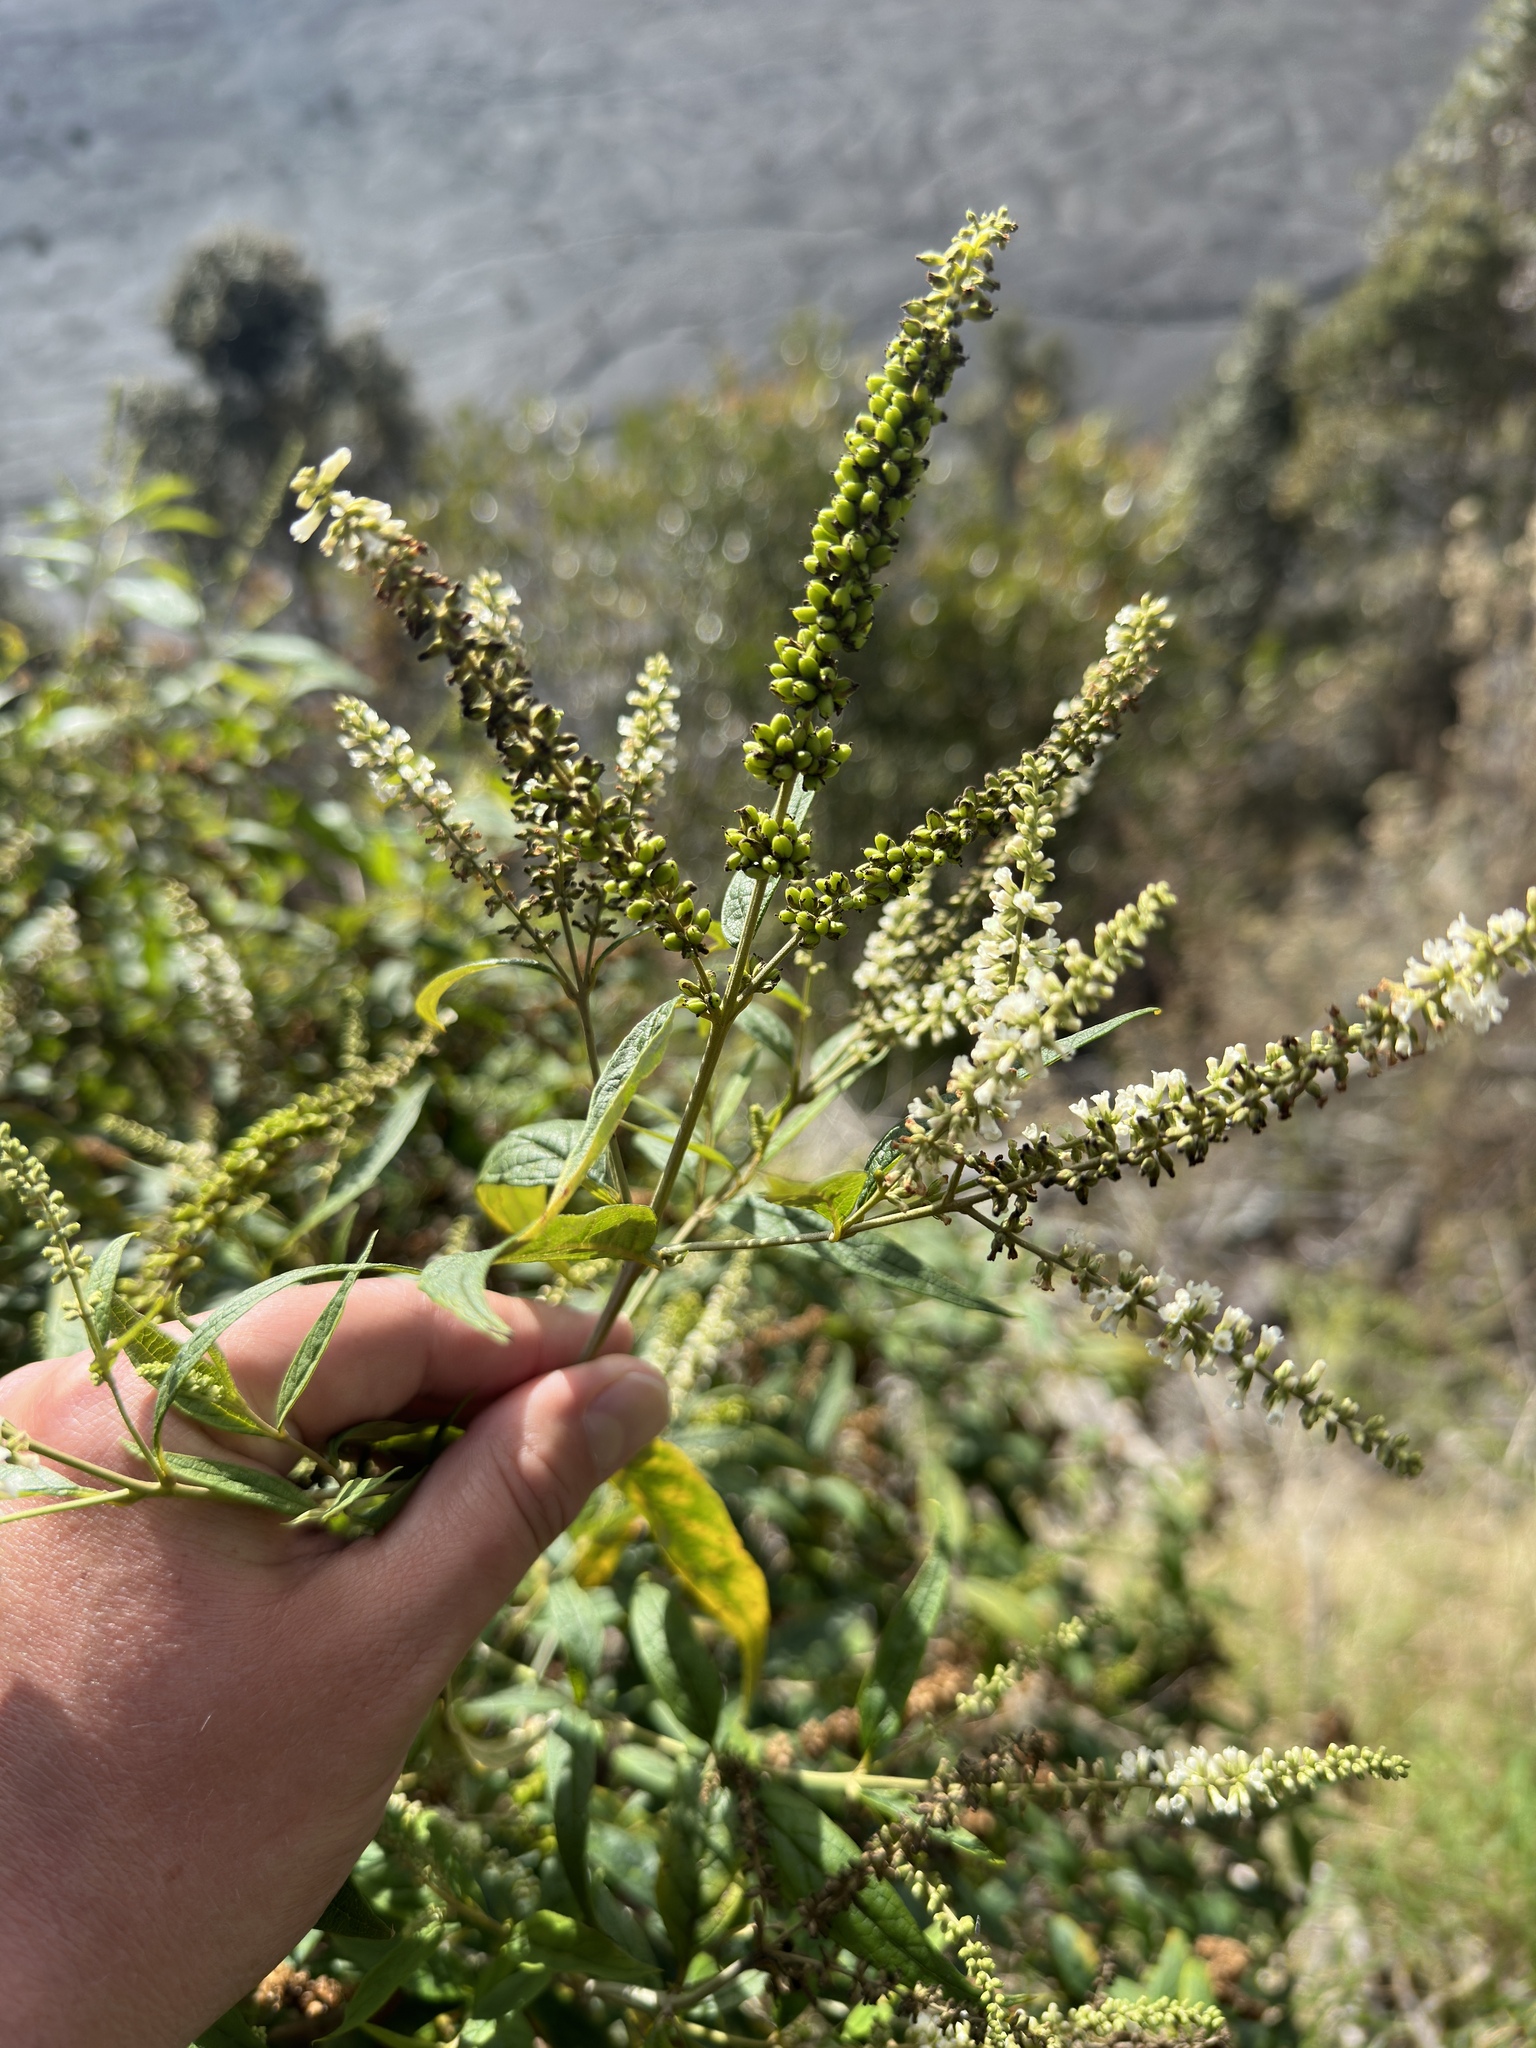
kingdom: Plantae
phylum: Tracheophyta
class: Magnoliopsida
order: Lamiales
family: Scrophulariaceae
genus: Buddleja
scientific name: Buddleja asiatica
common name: Dog tail
